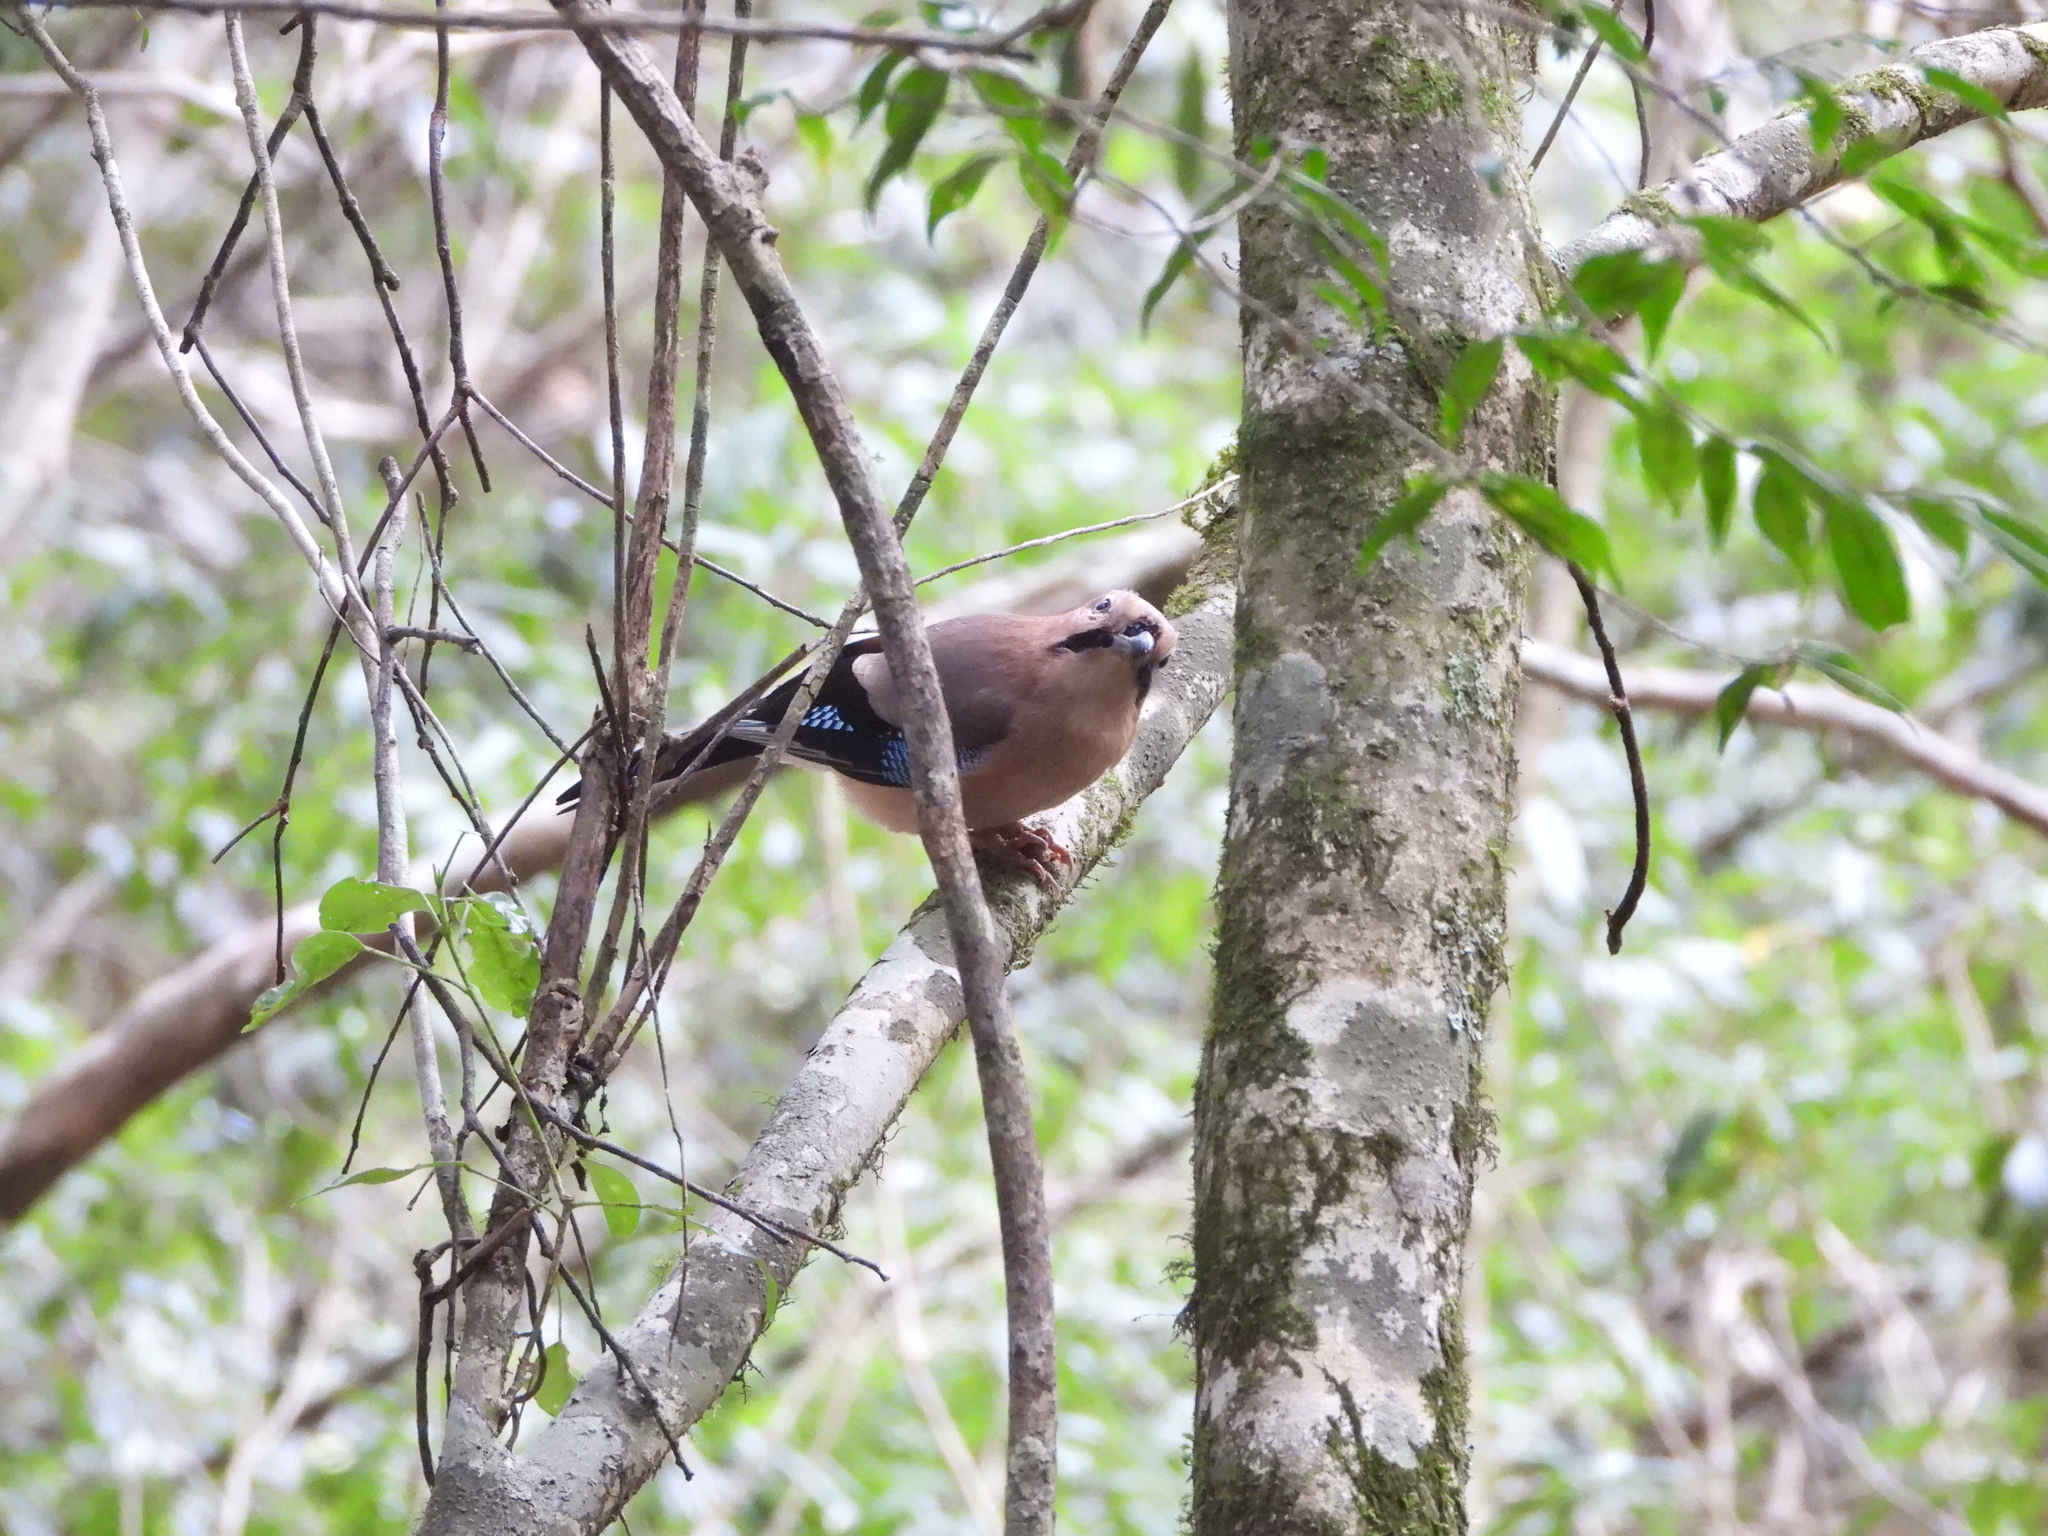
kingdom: Animalia
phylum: Chordata
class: Aves
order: Passeriformes
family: Corvidae
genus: Garrulus
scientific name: Garrulus glandarius
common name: Eurasian jay
